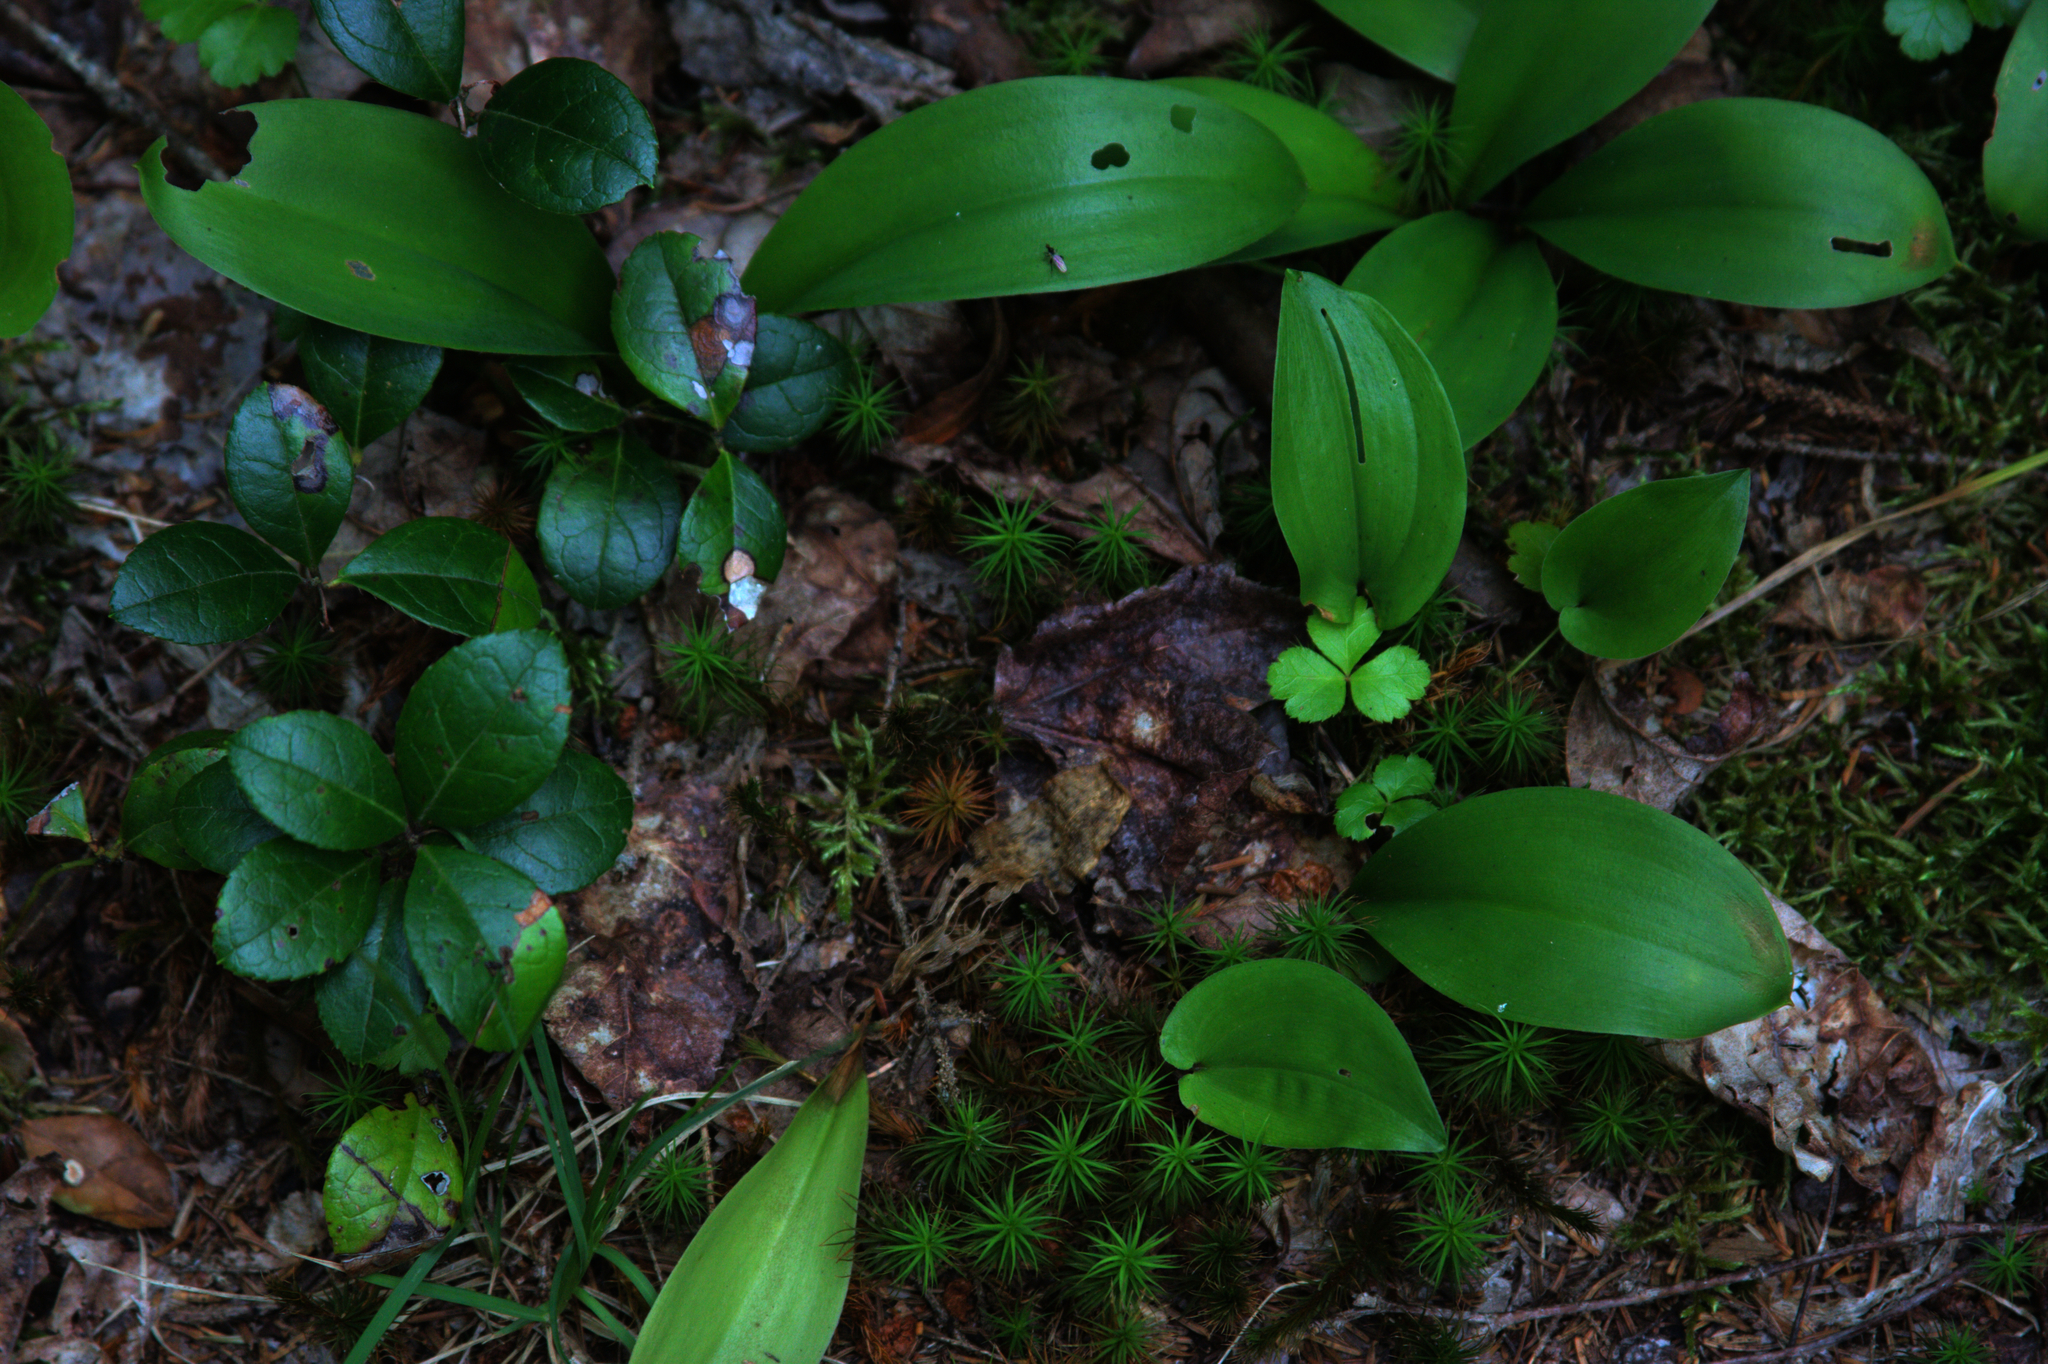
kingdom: Plantae
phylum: Tracheophyta
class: Liliopsida
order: Liliales
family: Liliaceae
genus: Clintonia
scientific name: Clintonia borealis
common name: Yellow clintonia
